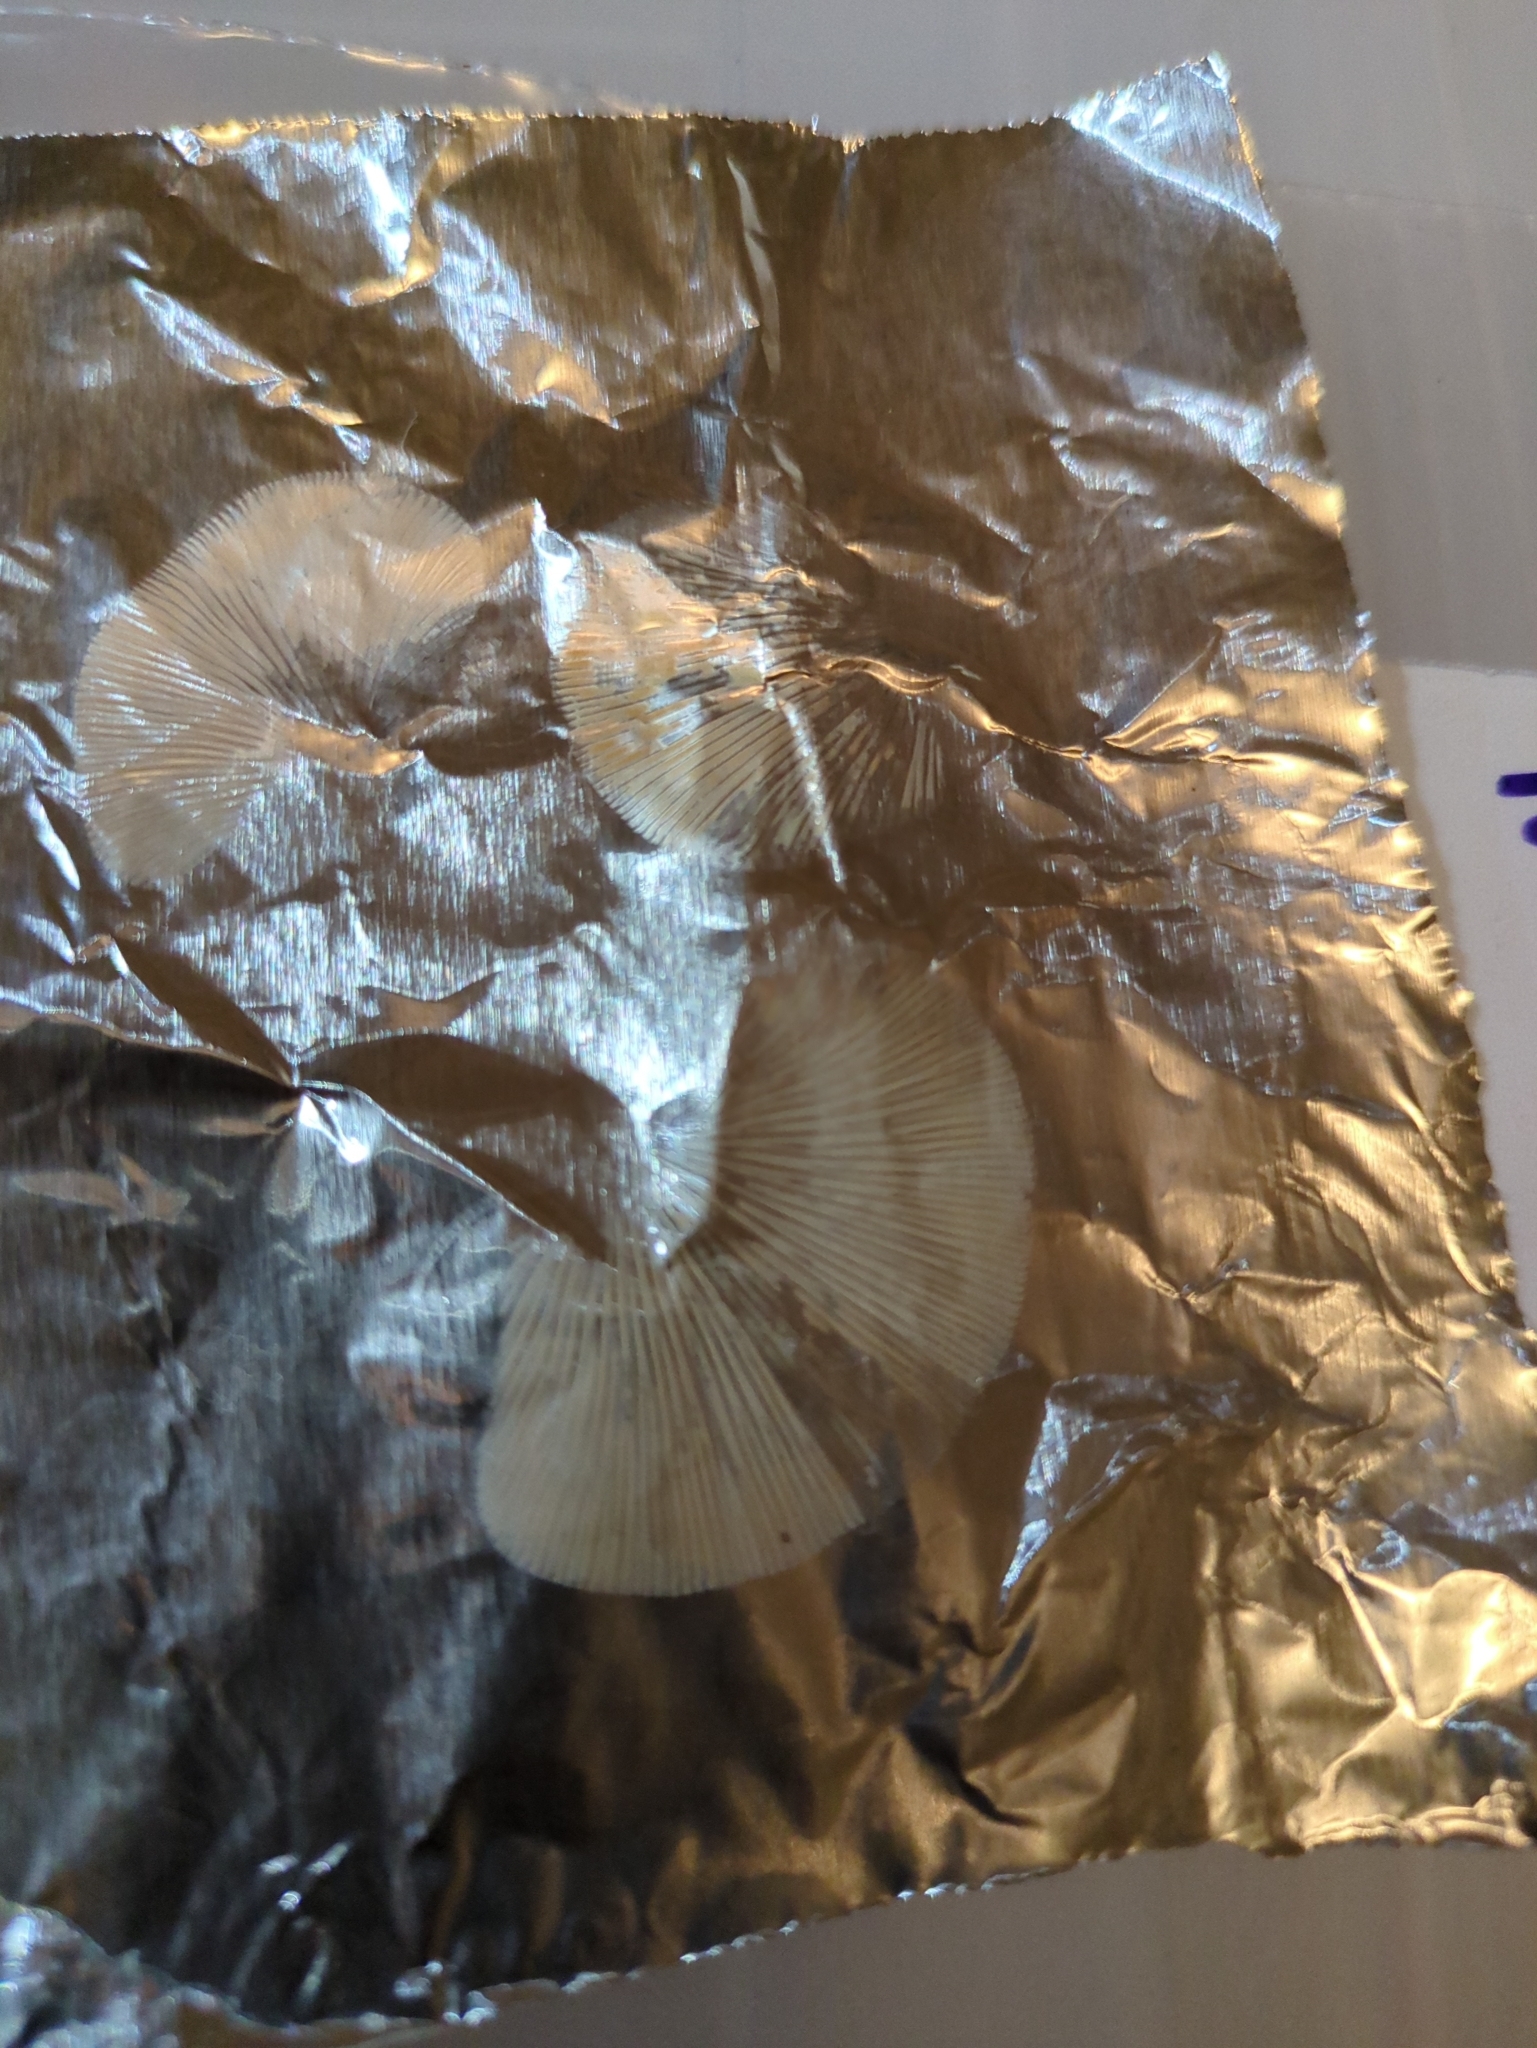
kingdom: Fungi
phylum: Basidiomycota
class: Agaricomycetes
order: Agaricales
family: Phyllotopsidaceae
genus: Phyllotopsis
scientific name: Phyllotopsis nidulans
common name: Orange mock oyster
